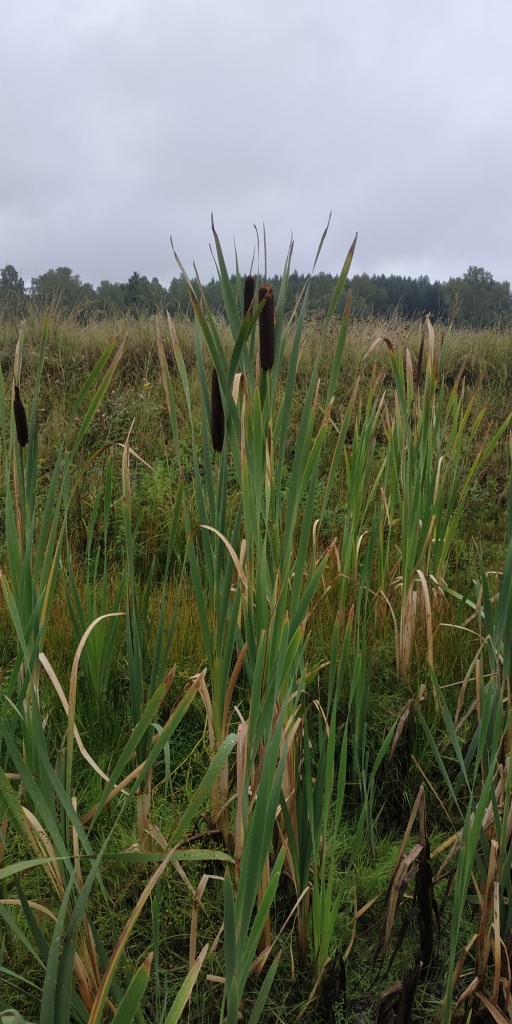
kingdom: Plantae
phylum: Tracheophyta
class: Liliopsida
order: Poales
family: Typhaceae
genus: Typha
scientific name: Typha latifolia
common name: Broadleaf cattail
